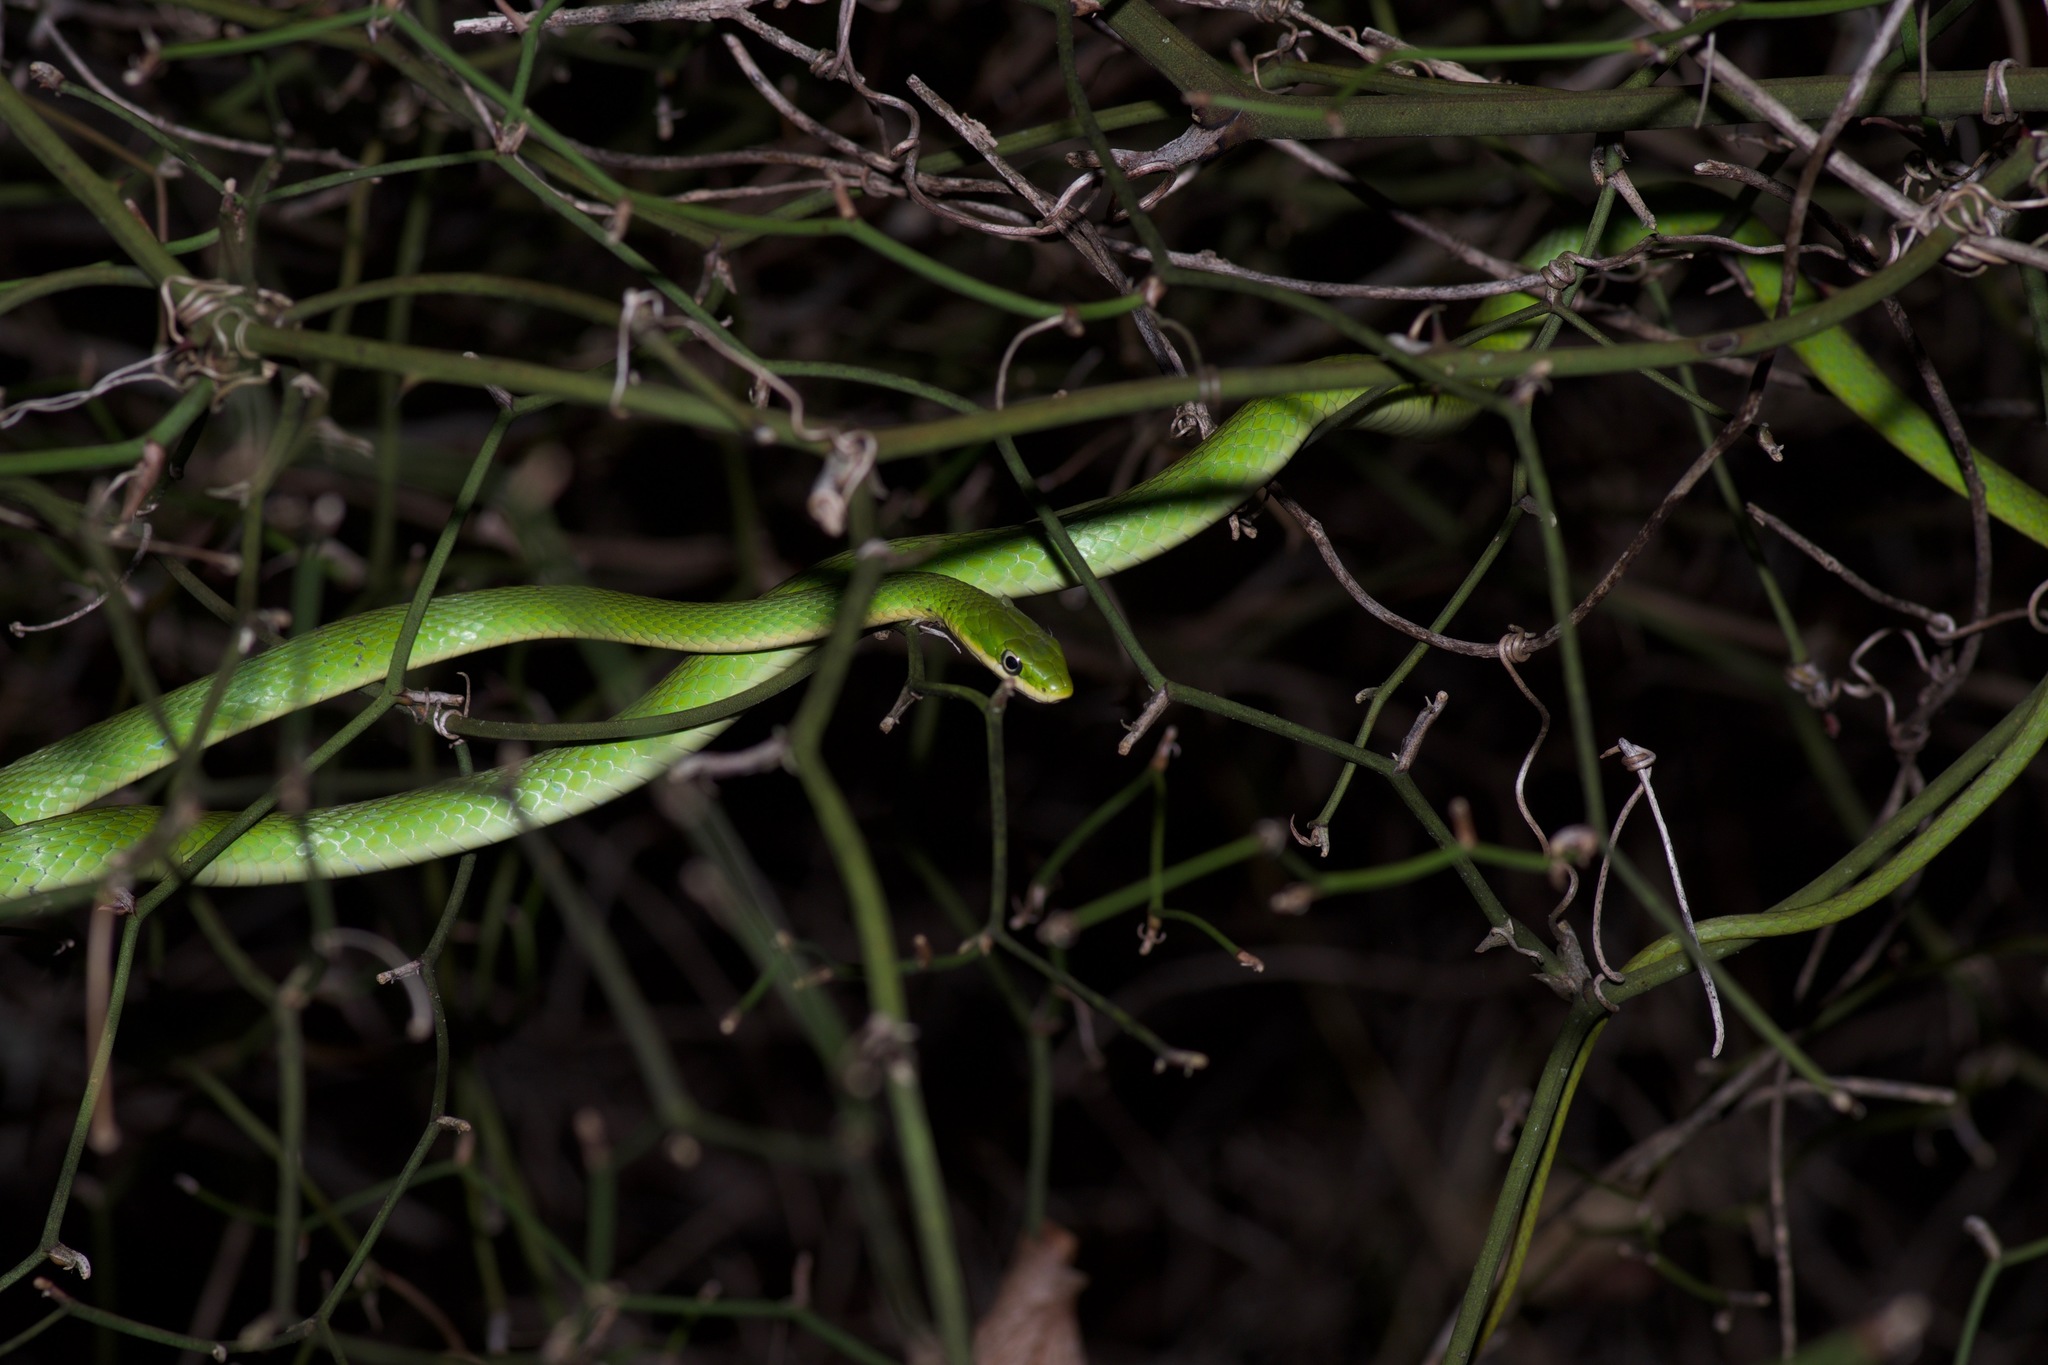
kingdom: Animalia
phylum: Chordata
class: Squamata
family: Colubridae
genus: Opheodrys
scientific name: Opheodrys aestivus
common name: Rough greensnake
